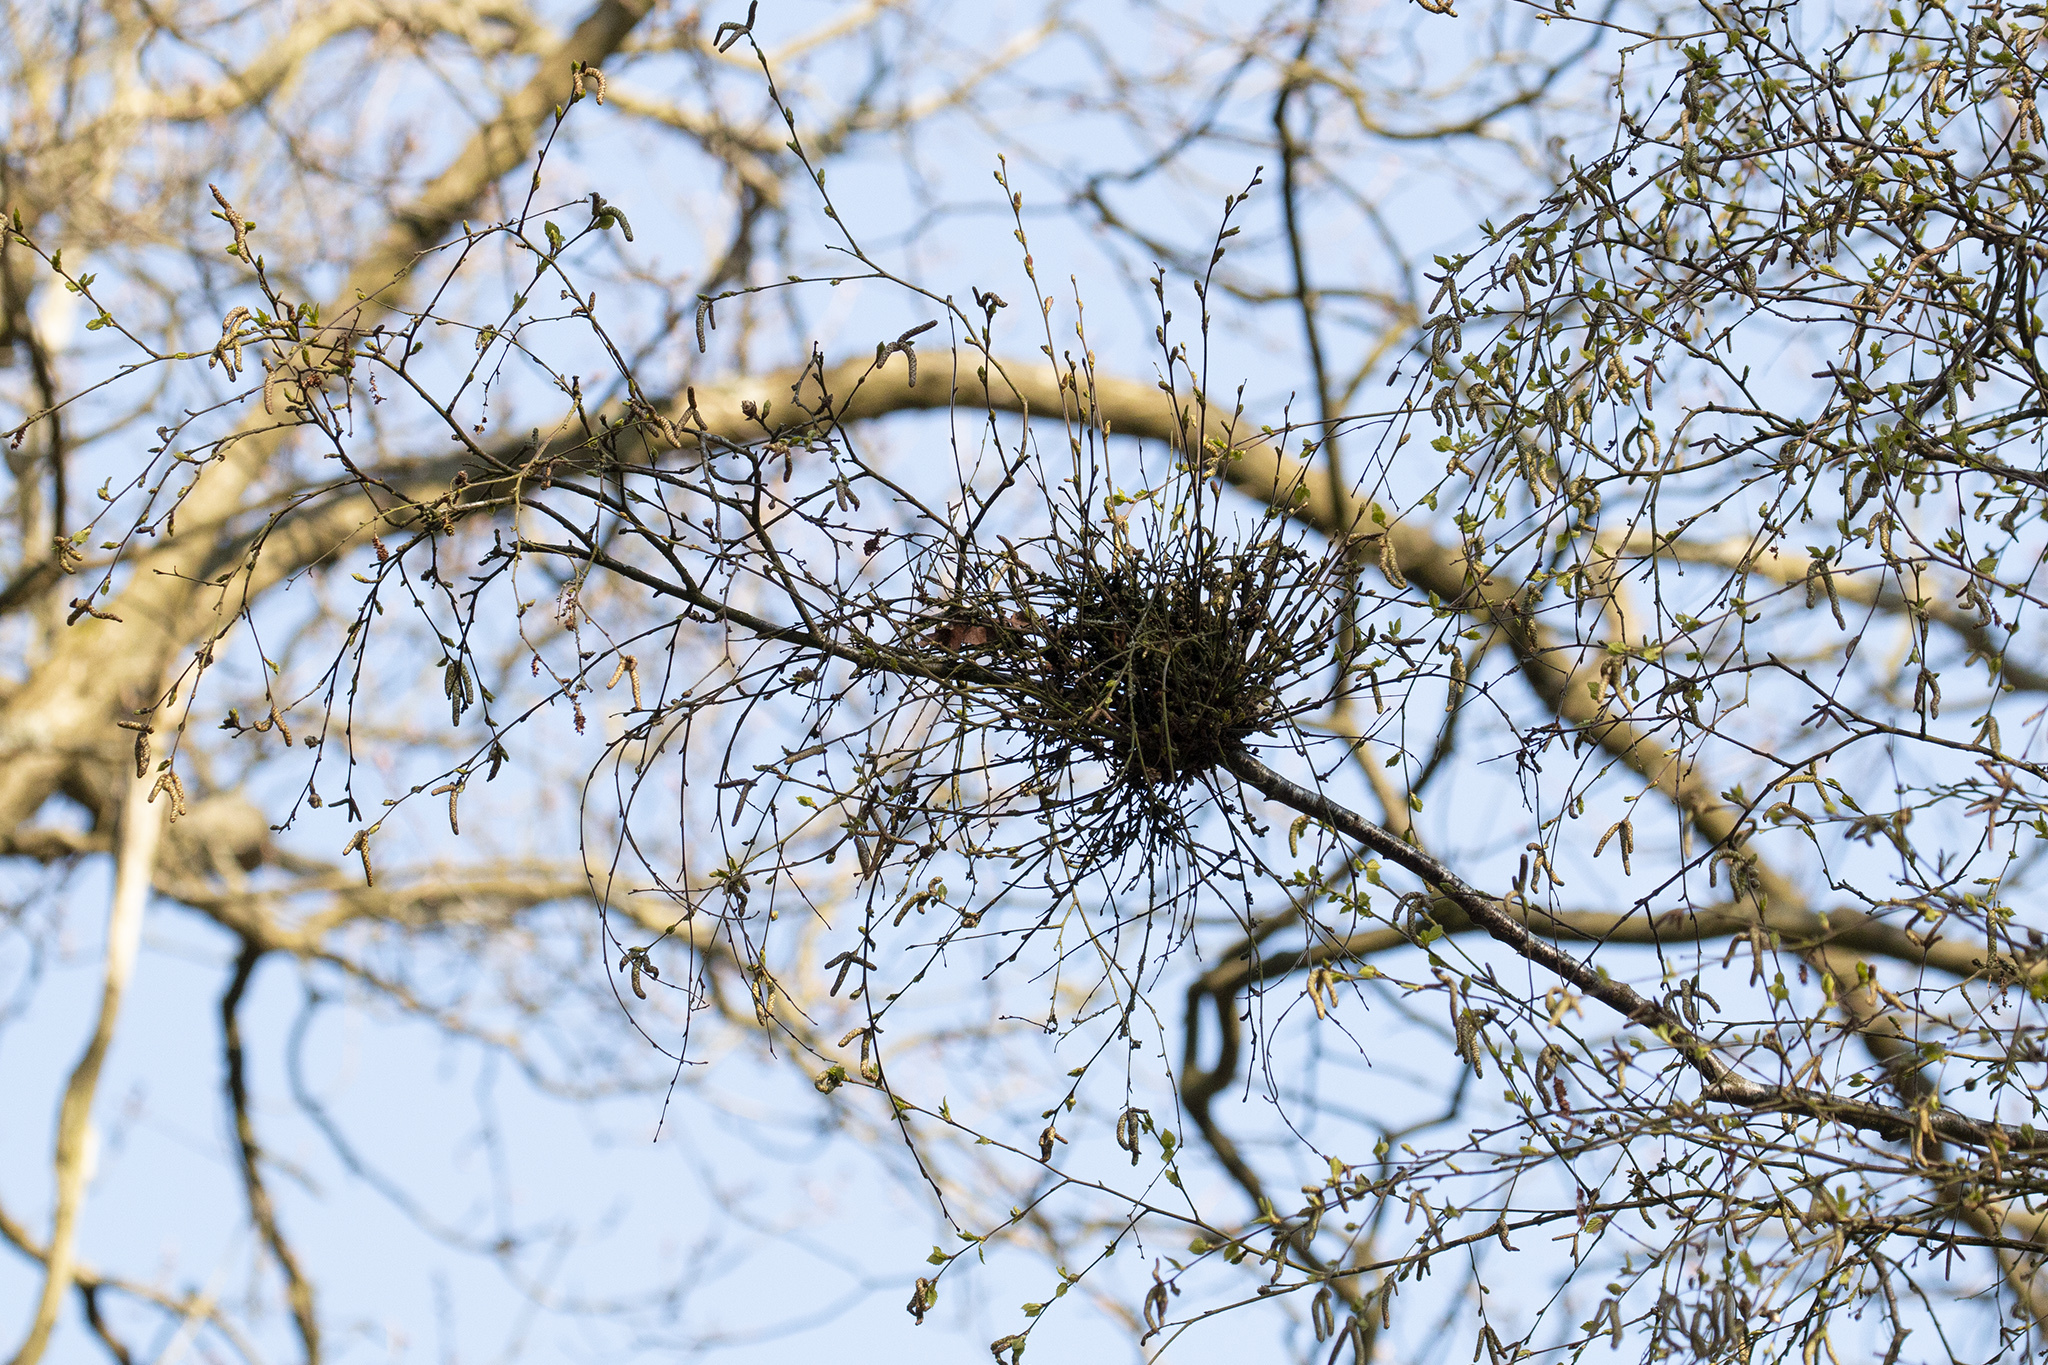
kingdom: Fungi
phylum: Ascomycota
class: Taphrinomycetes
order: Taphrinales
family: Taphrinaceae
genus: Taphrina
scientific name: Taphrina betulina
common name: Birch besom
